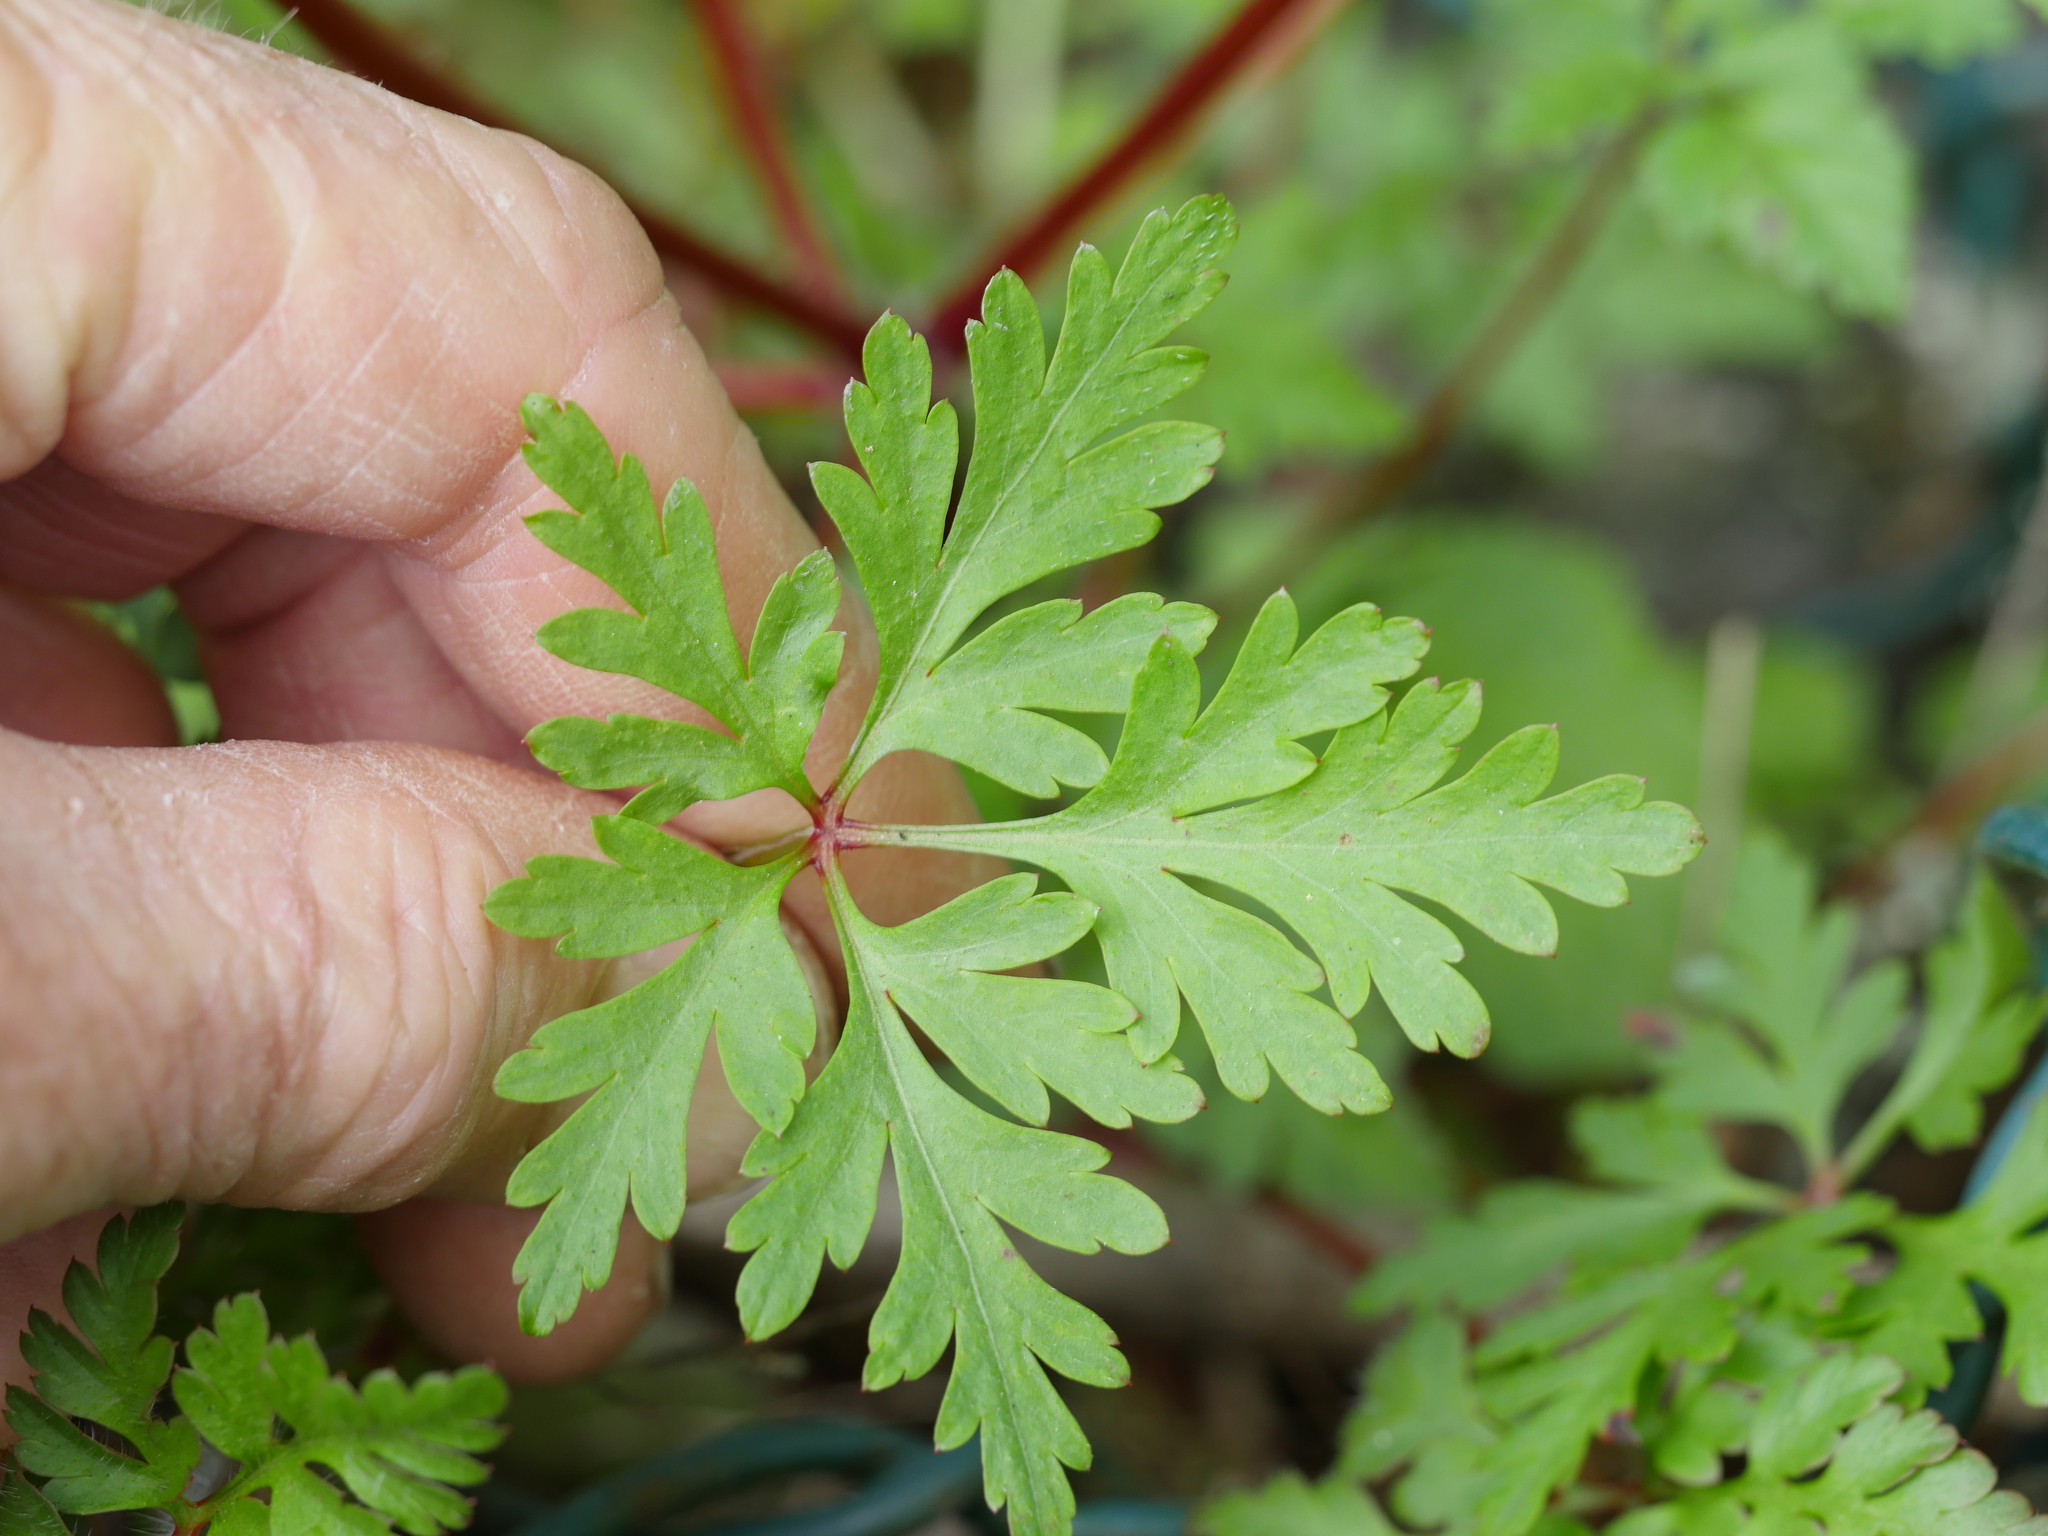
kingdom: Plantae
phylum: Tracheophyta
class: Magnoliopsida
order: Geraniales
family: Geraniaceae
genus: Geranium
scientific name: Geranium robertianum
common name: Herb-robert
